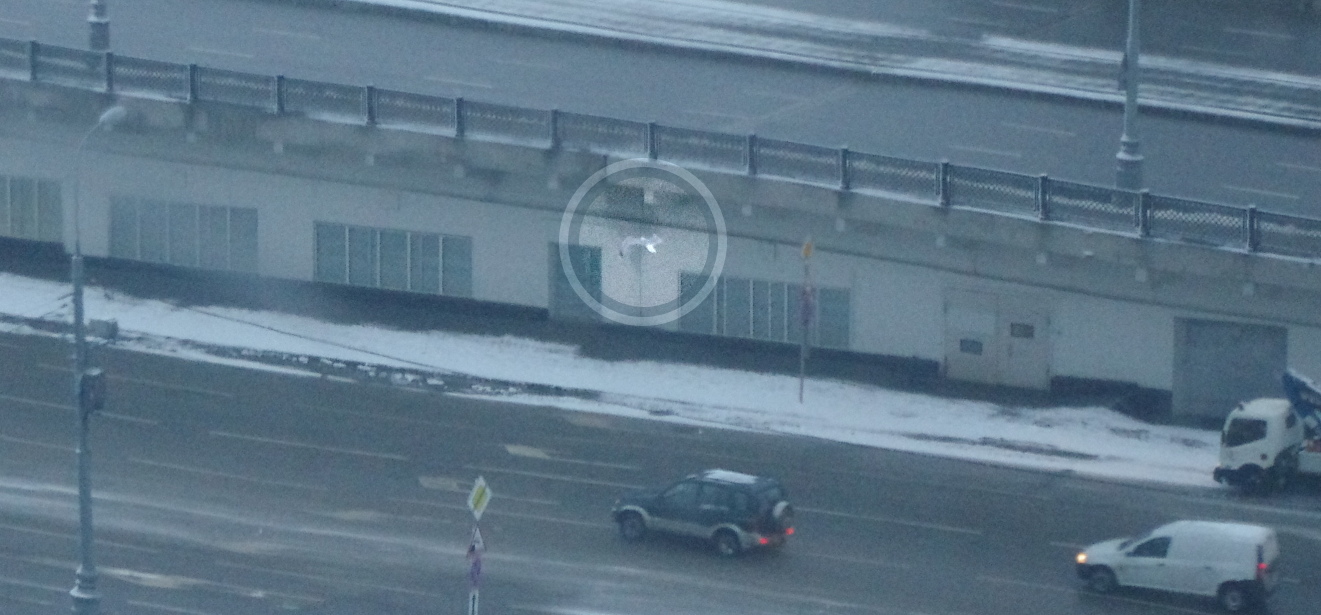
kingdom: Animalia
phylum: Chordata
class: Aves
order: Charadriiformes
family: Laridae
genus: Larus
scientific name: Larus canus
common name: Mew gull
